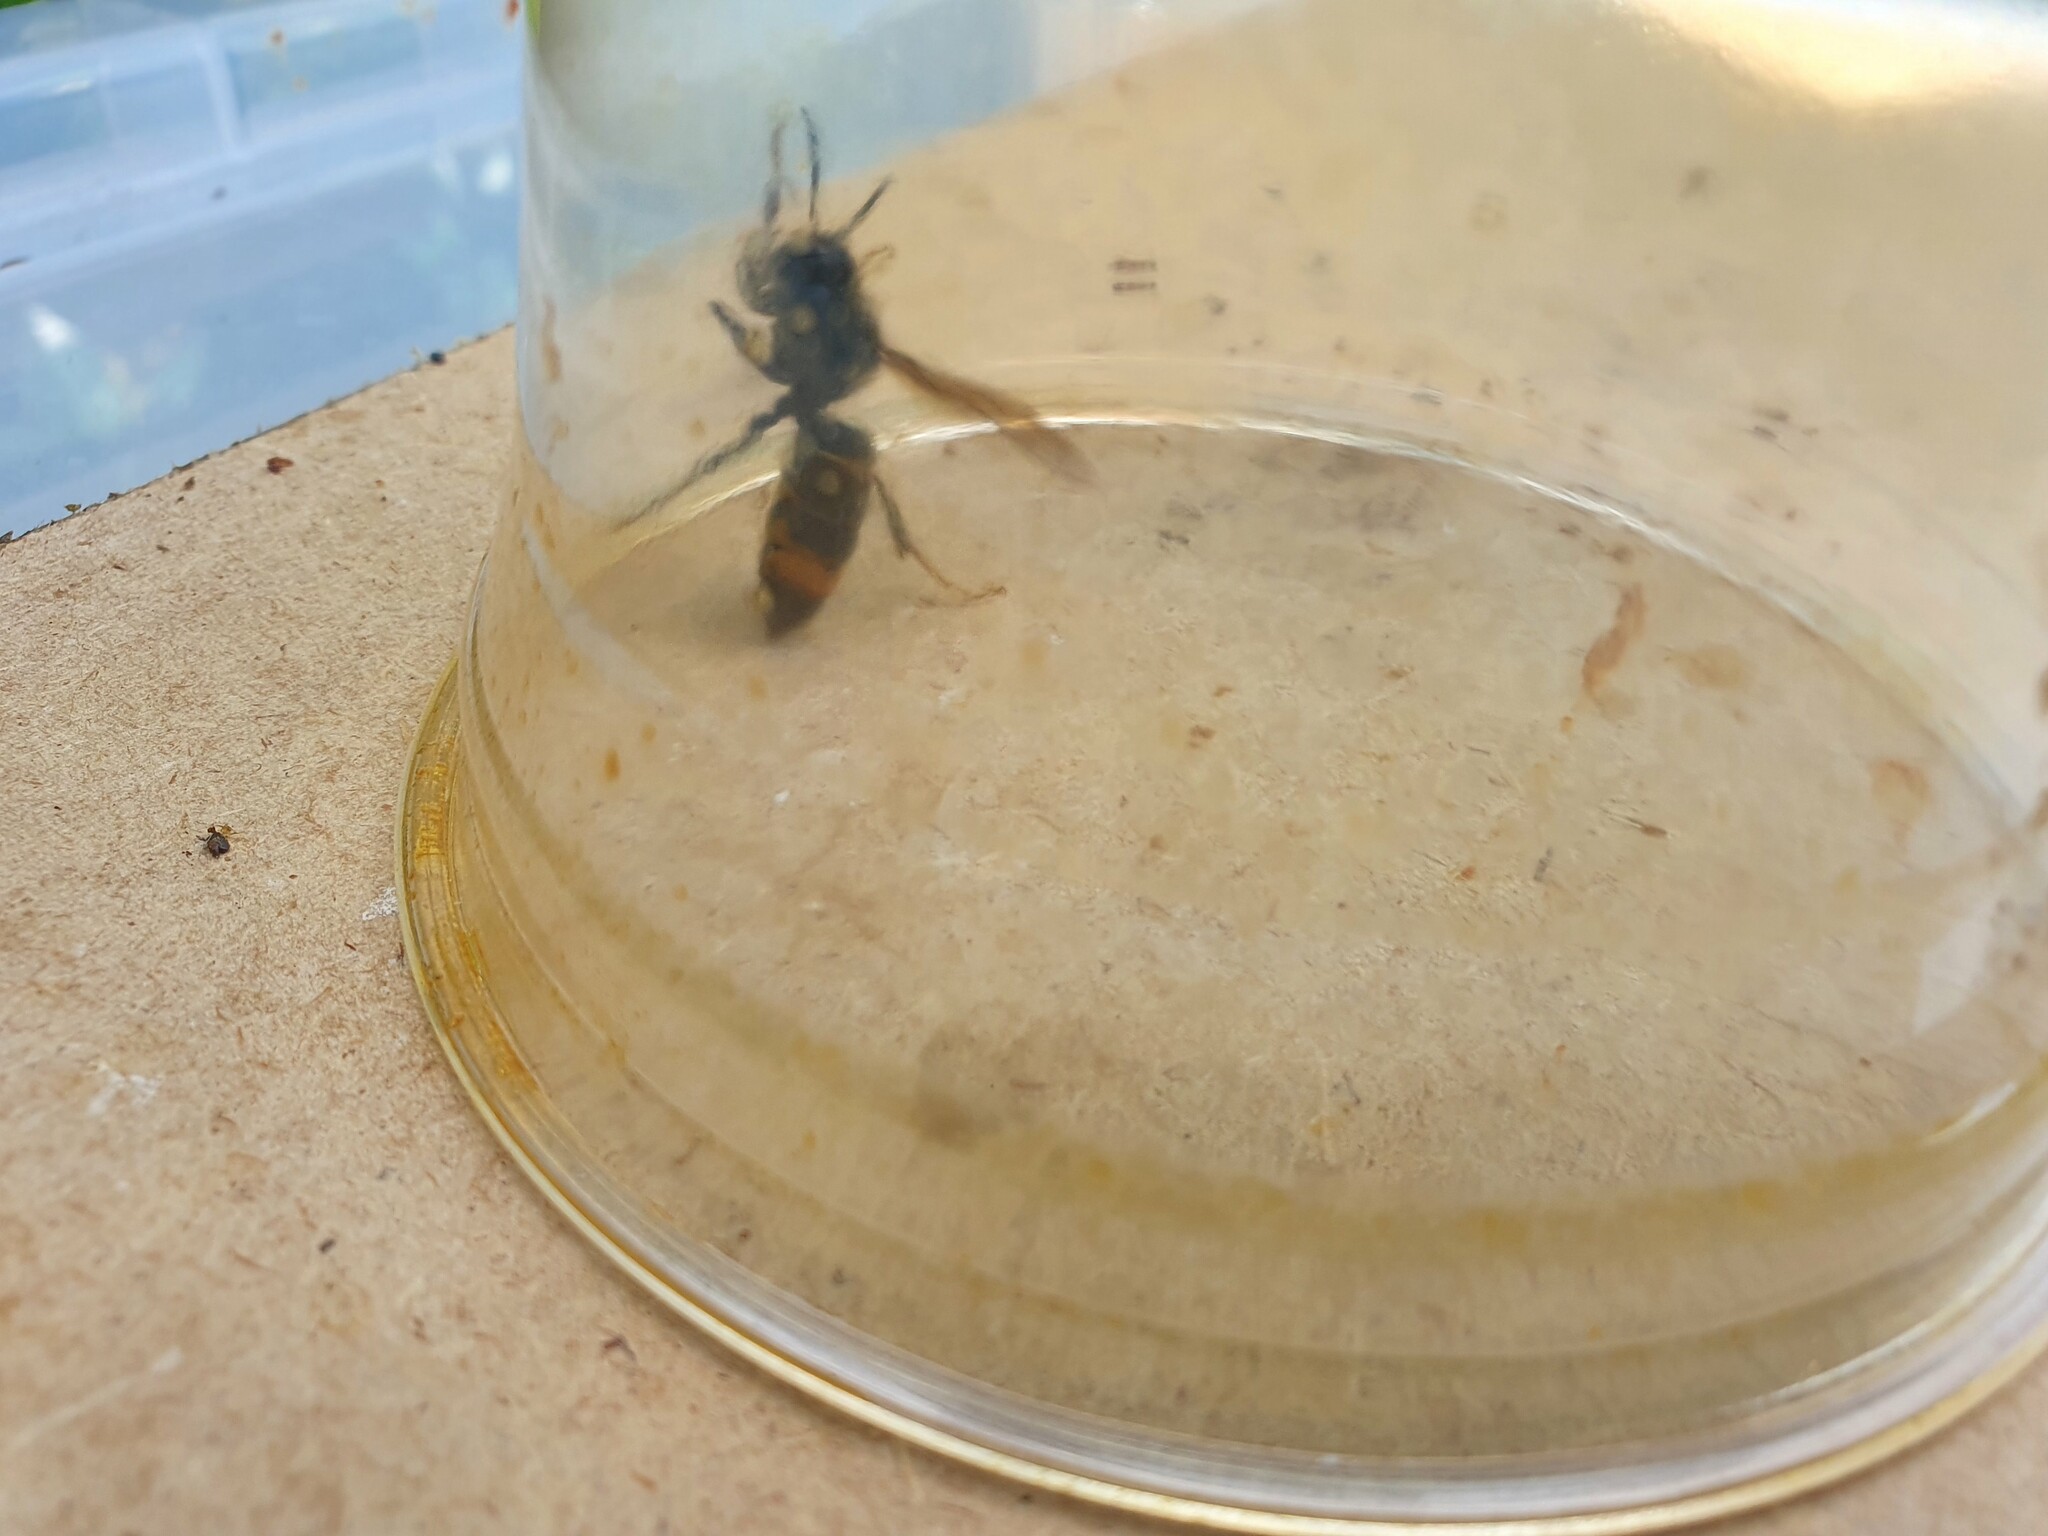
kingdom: Animalia
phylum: Arthropoda
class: Insecta
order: Hymenoptera
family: Vespidae
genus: Vespa
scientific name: Vespa velutina
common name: Asian hornet
